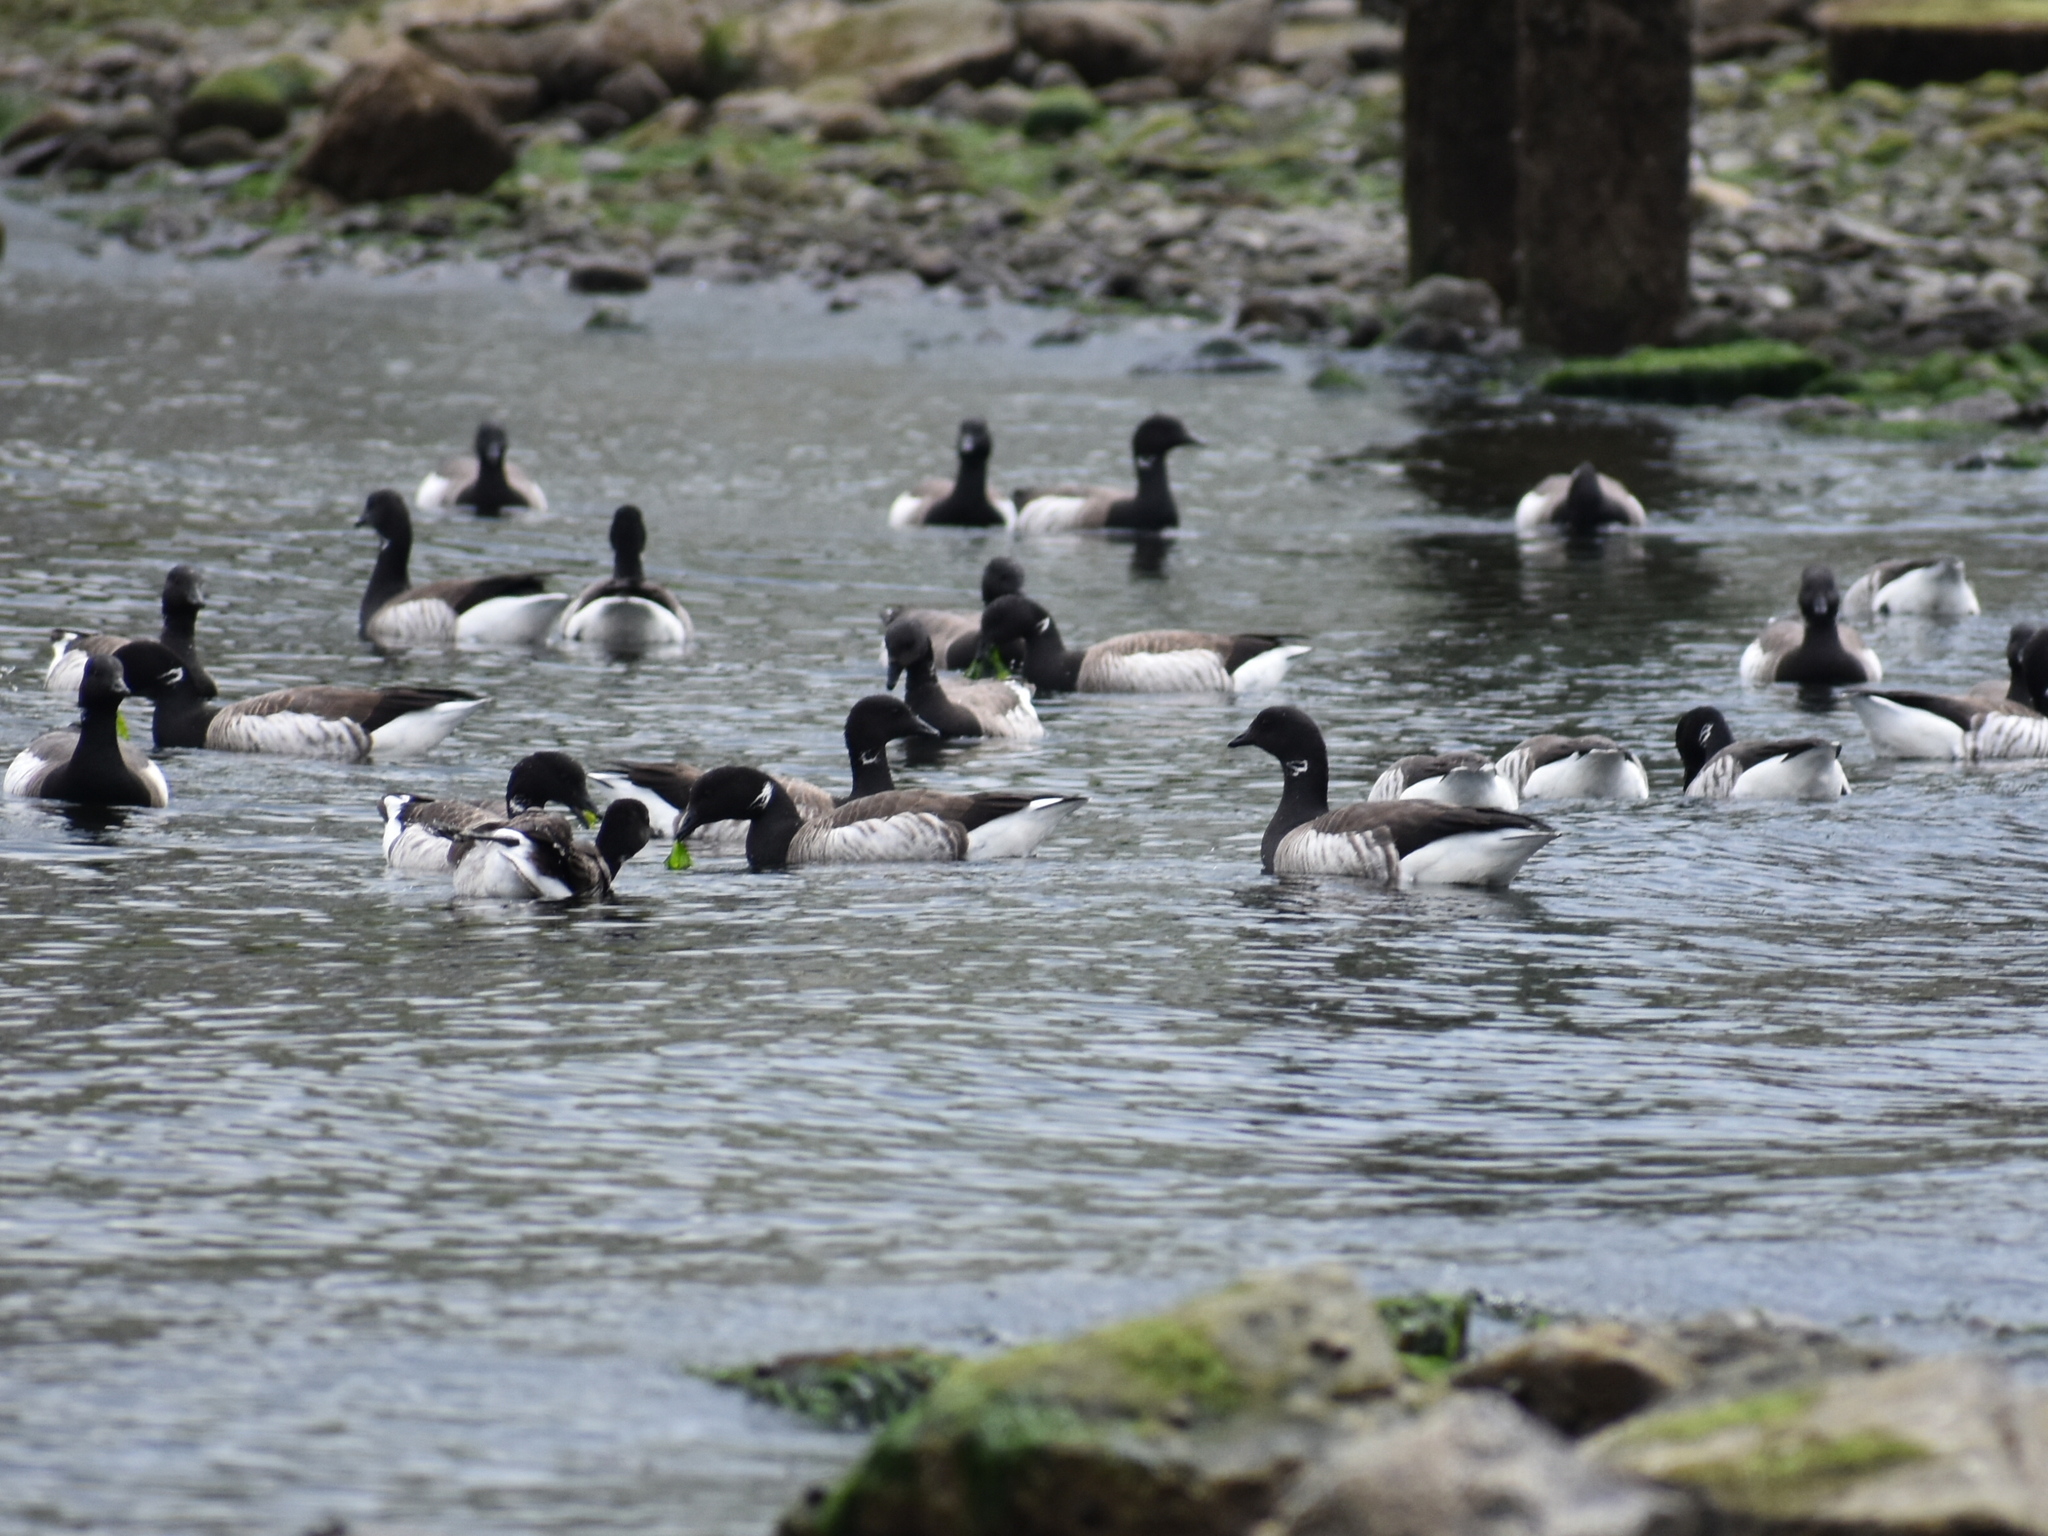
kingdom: Animalia
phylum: Chordata
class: Aves
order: Anseriformes
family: Anatidae
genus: Branta
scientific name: Branta bernicla
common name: Brant goose
